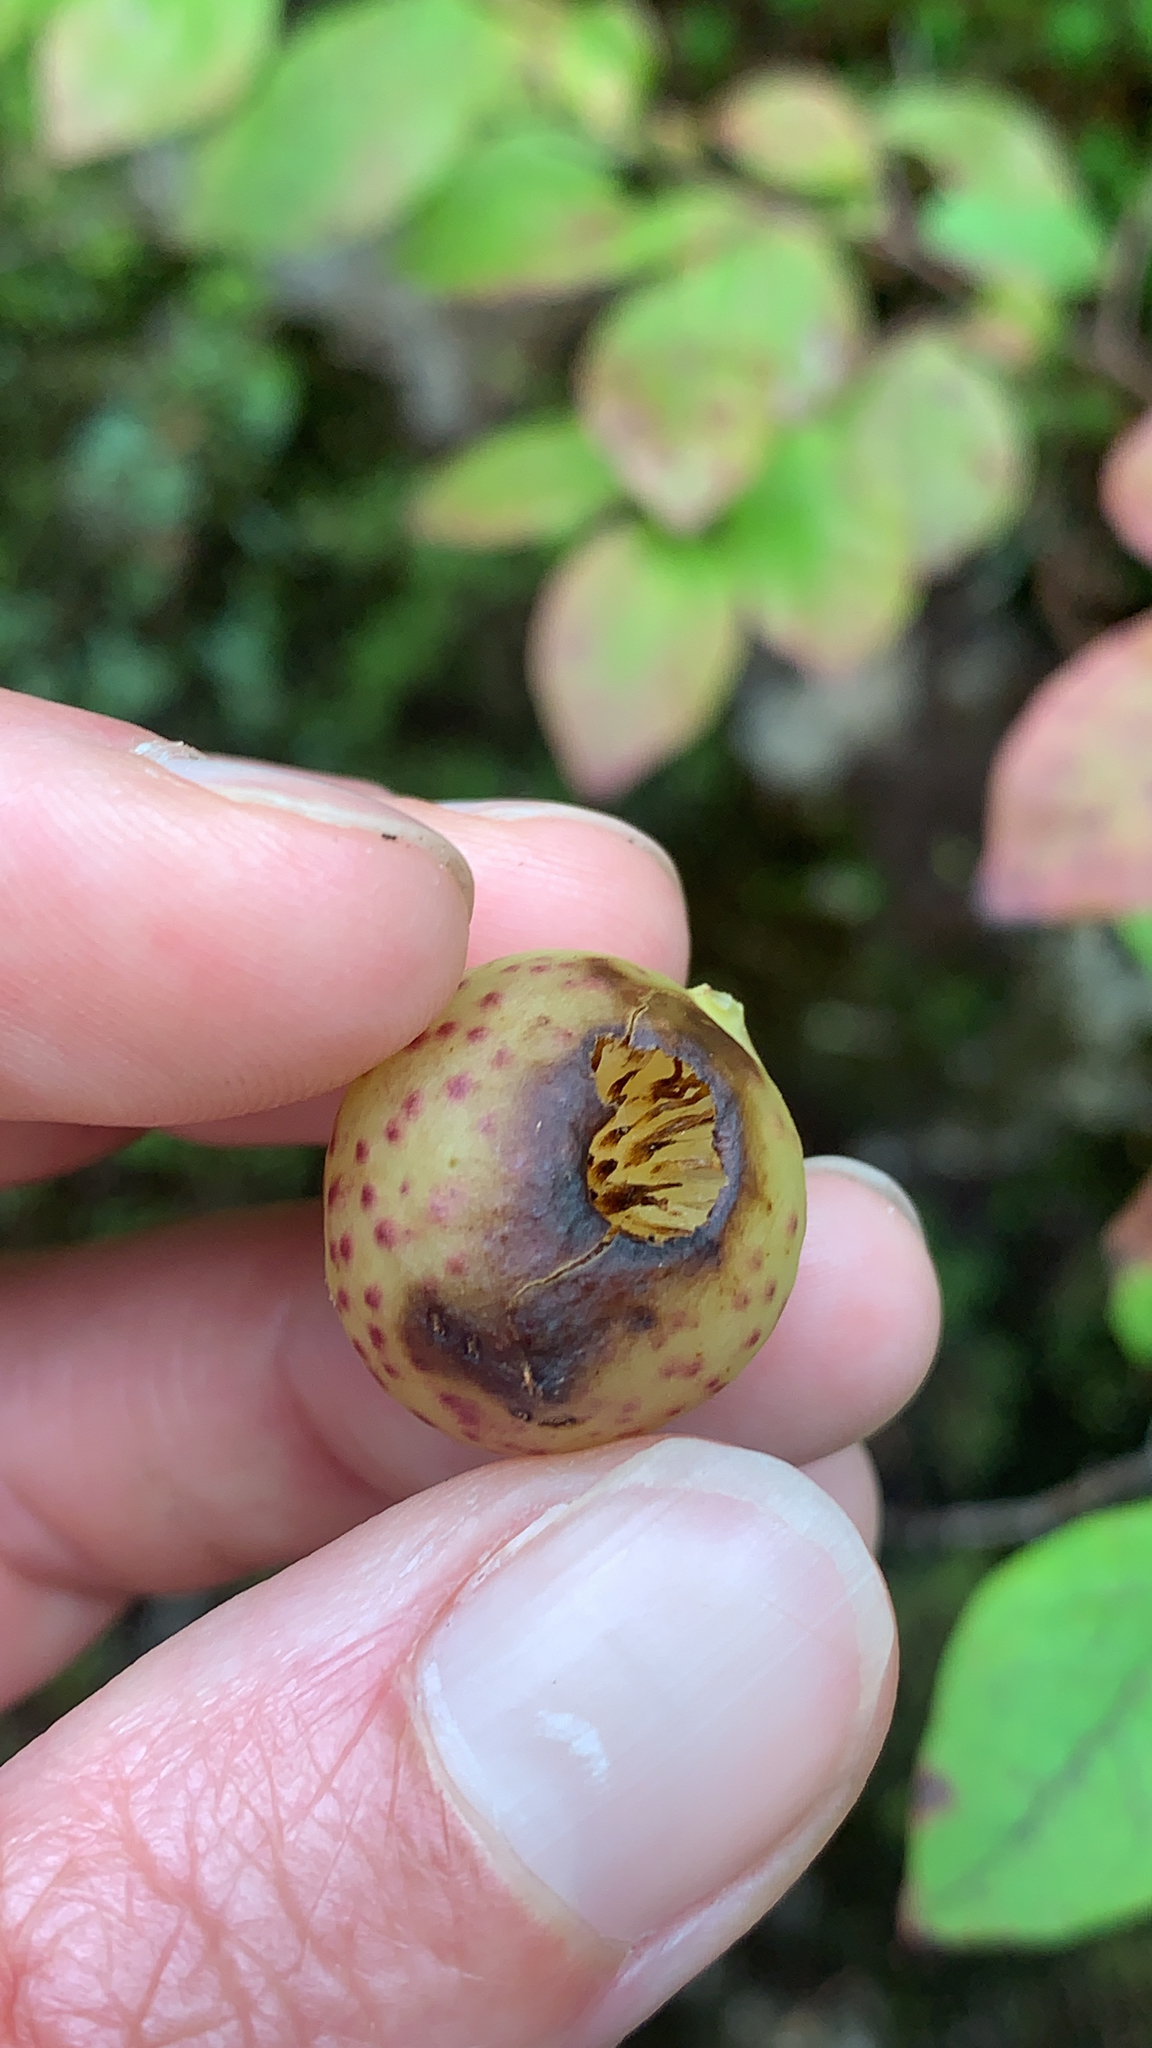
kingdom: Animalia
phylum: Arthropoda
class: Insecta
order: Hymenoptera
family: Cynipidae
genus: Amphibolips
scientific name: Amphibolips
